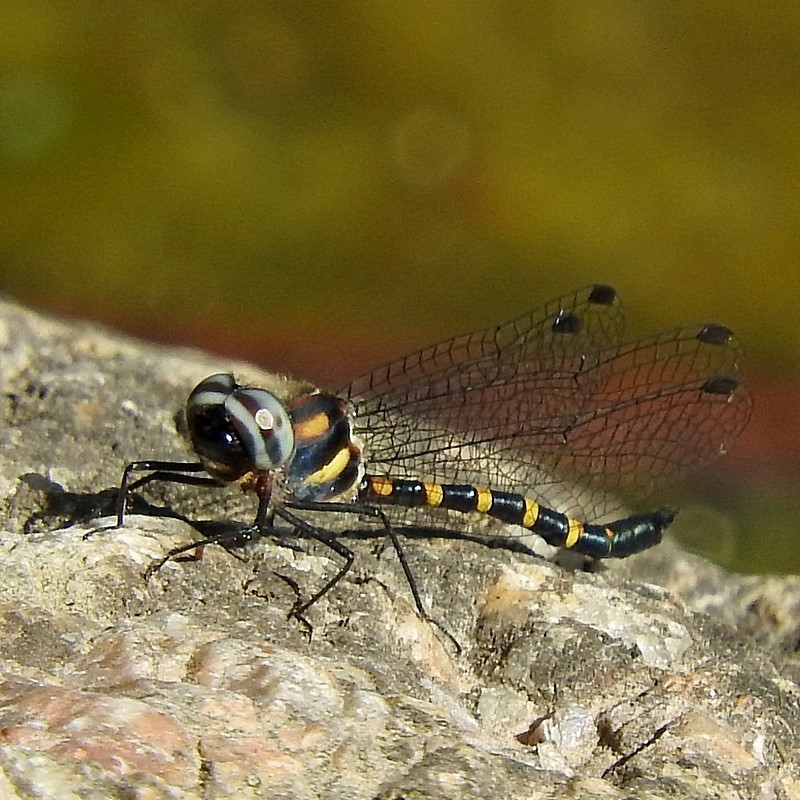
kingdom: Animalia
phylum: Arthropoda
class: Insecta
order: Odonata
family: Corduliidae
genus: Cordulephya
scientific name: Cordulephya pygmaea
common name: Common shutwing
